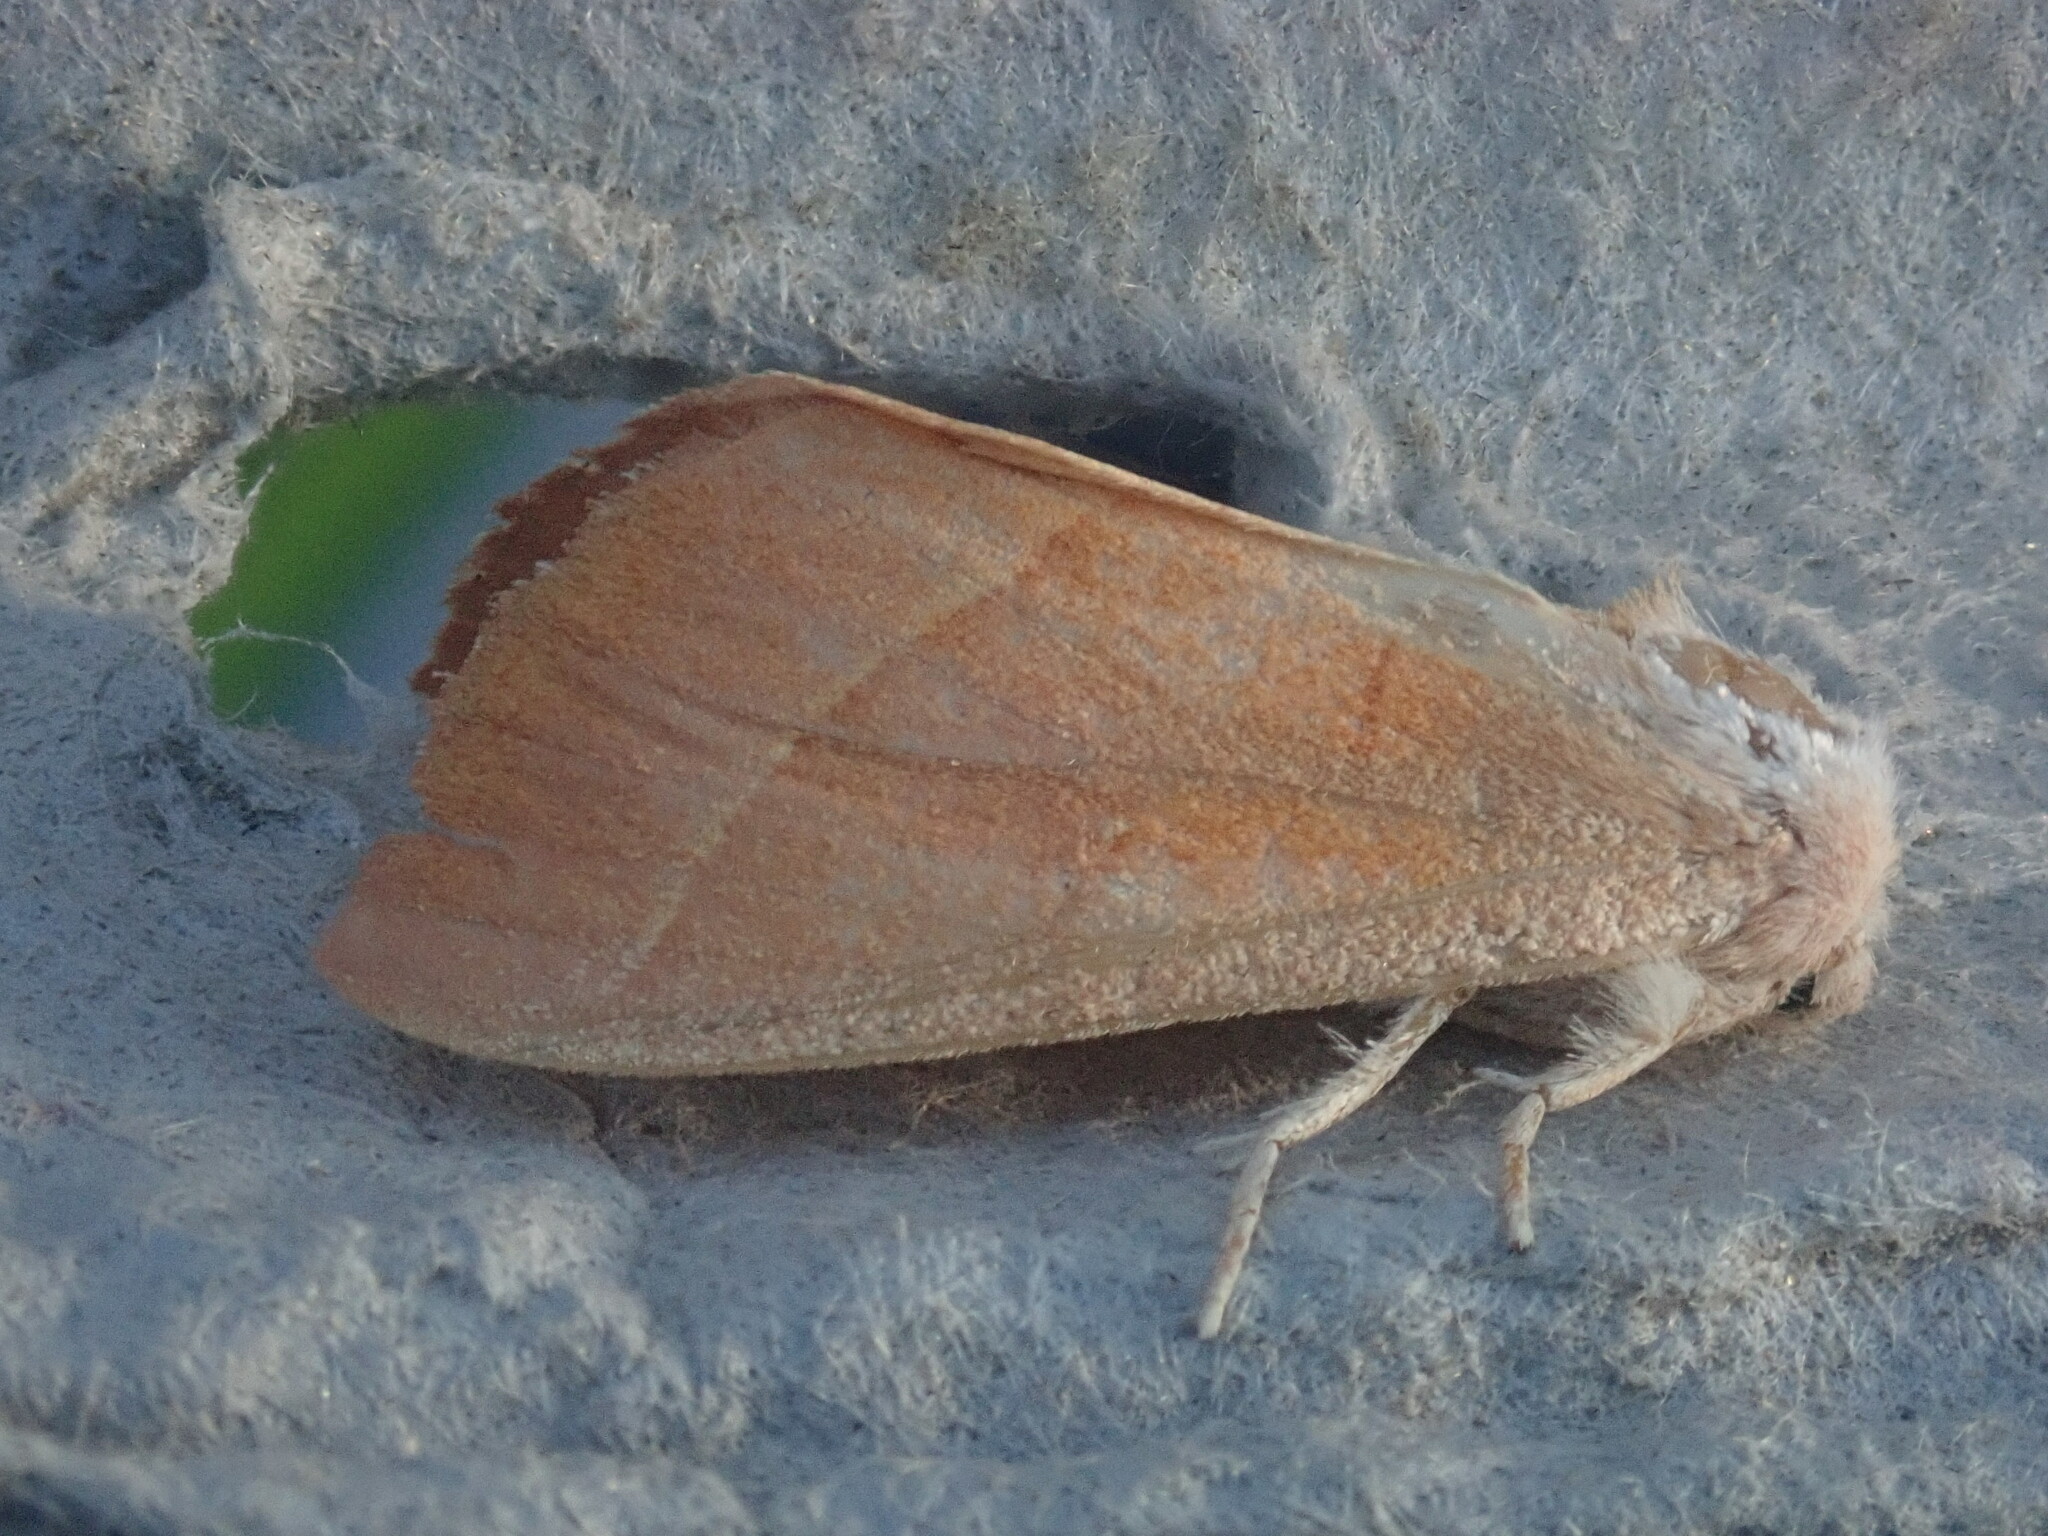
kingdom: Animalia
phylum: Arthropoda
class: Insecta
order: Lepidoptera
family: Notodontidae
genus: Nadata
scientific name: Nadata gibbosa
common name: White-dotted prominent
